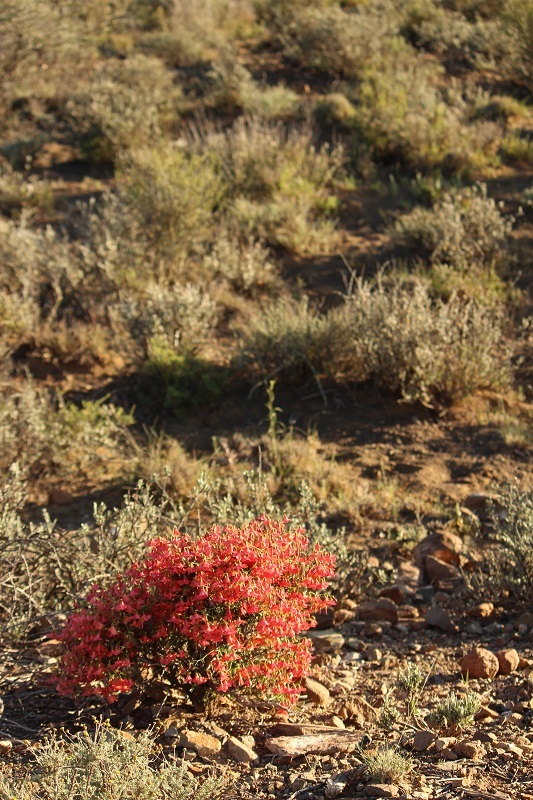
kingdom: Plantae
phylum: Tracheophyta
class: Magnoliopsida
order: Malvales
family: Malvaceae
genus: Hermannia
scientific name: Hermannia grandiflora
